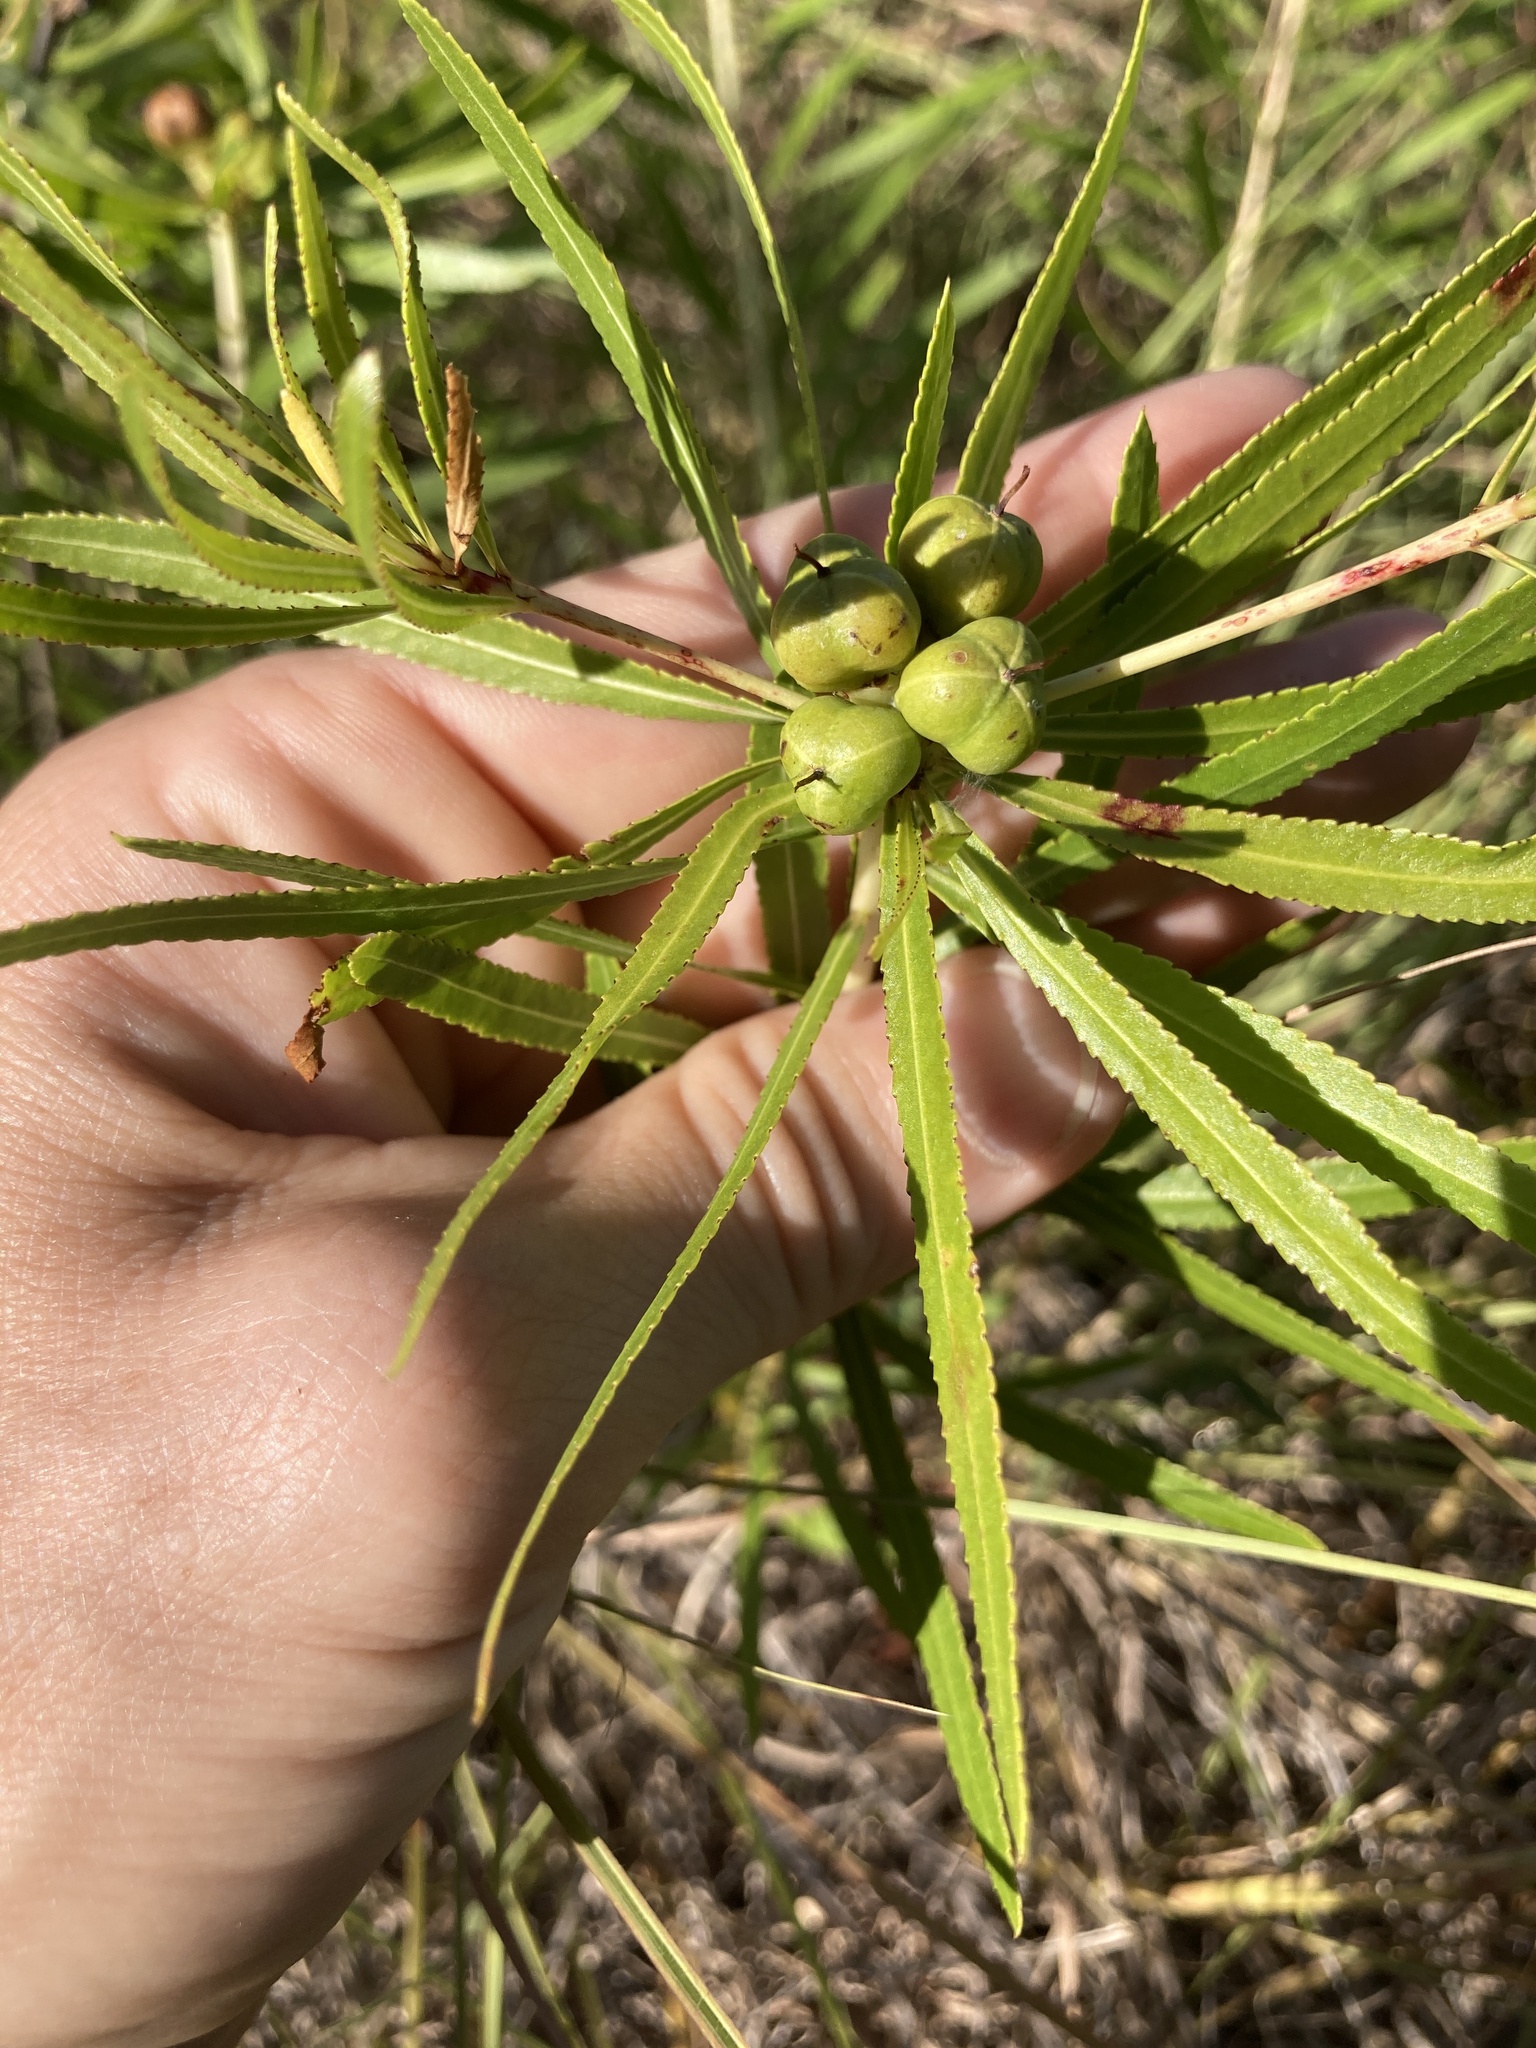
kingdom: Plantae
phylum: Tracheophyta
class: Magnoliopsida
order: Malpighiales
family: Euphorbiaceae
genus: Stillingia
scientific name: Stillingia texana
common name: Texas stillingia
